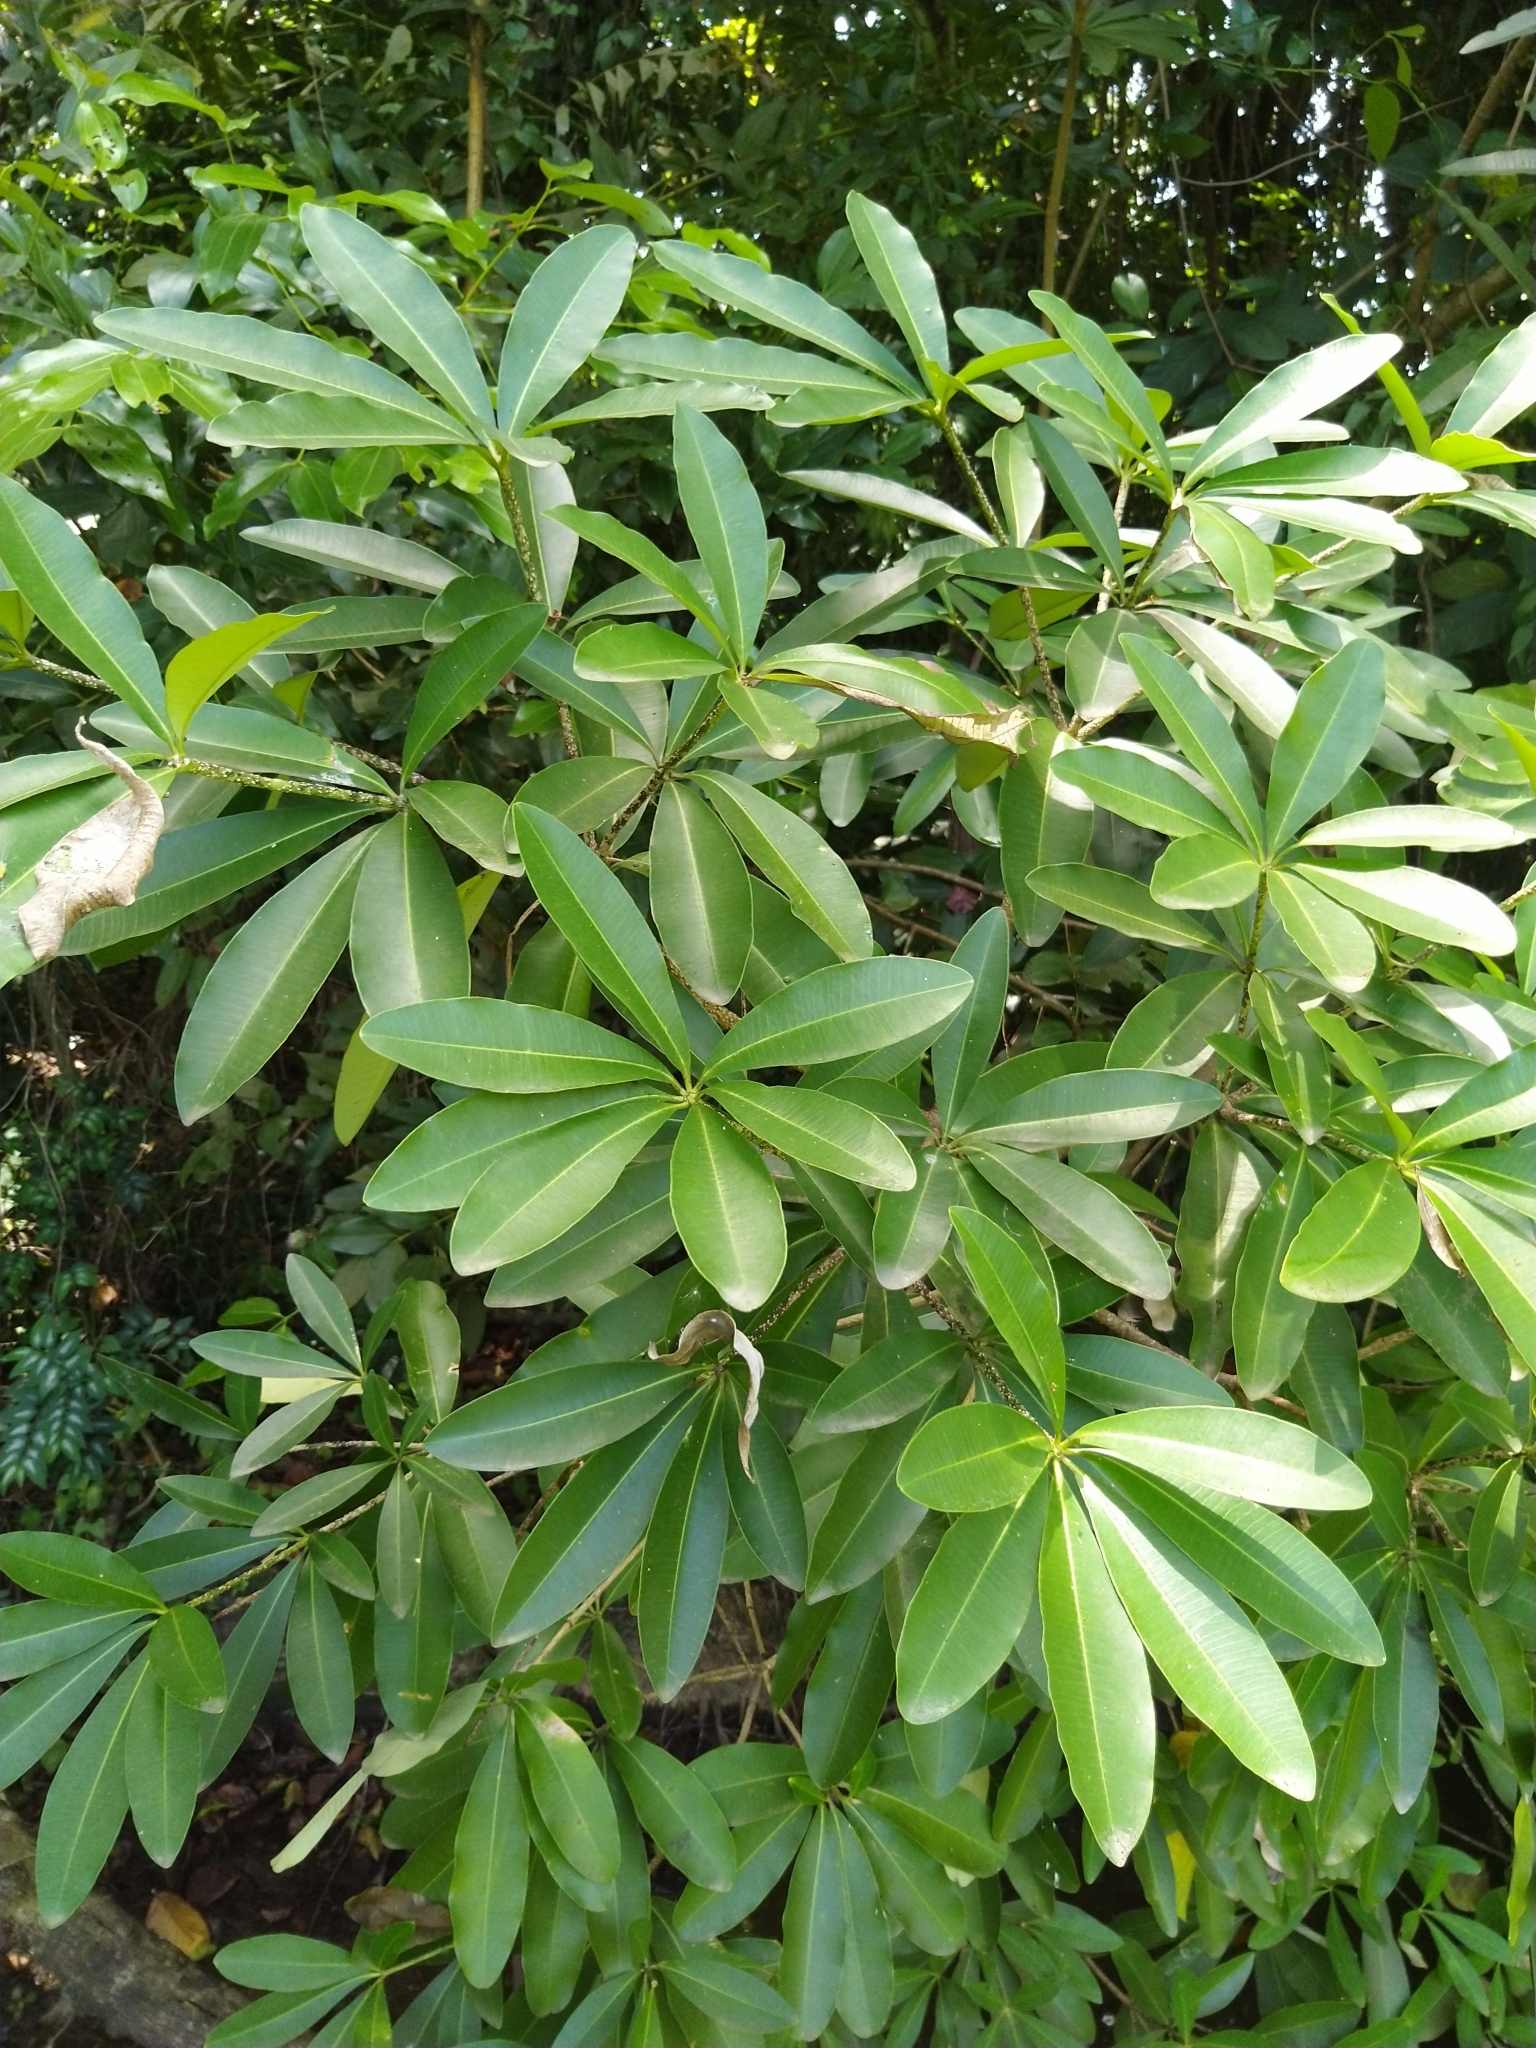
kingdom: Plantae
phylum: Tracheophyta
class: Magnoliopsida
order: Gentianales
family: Apocynaceae
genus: Alstonia
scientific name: Alstonia scholaris
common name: White cheesewood
